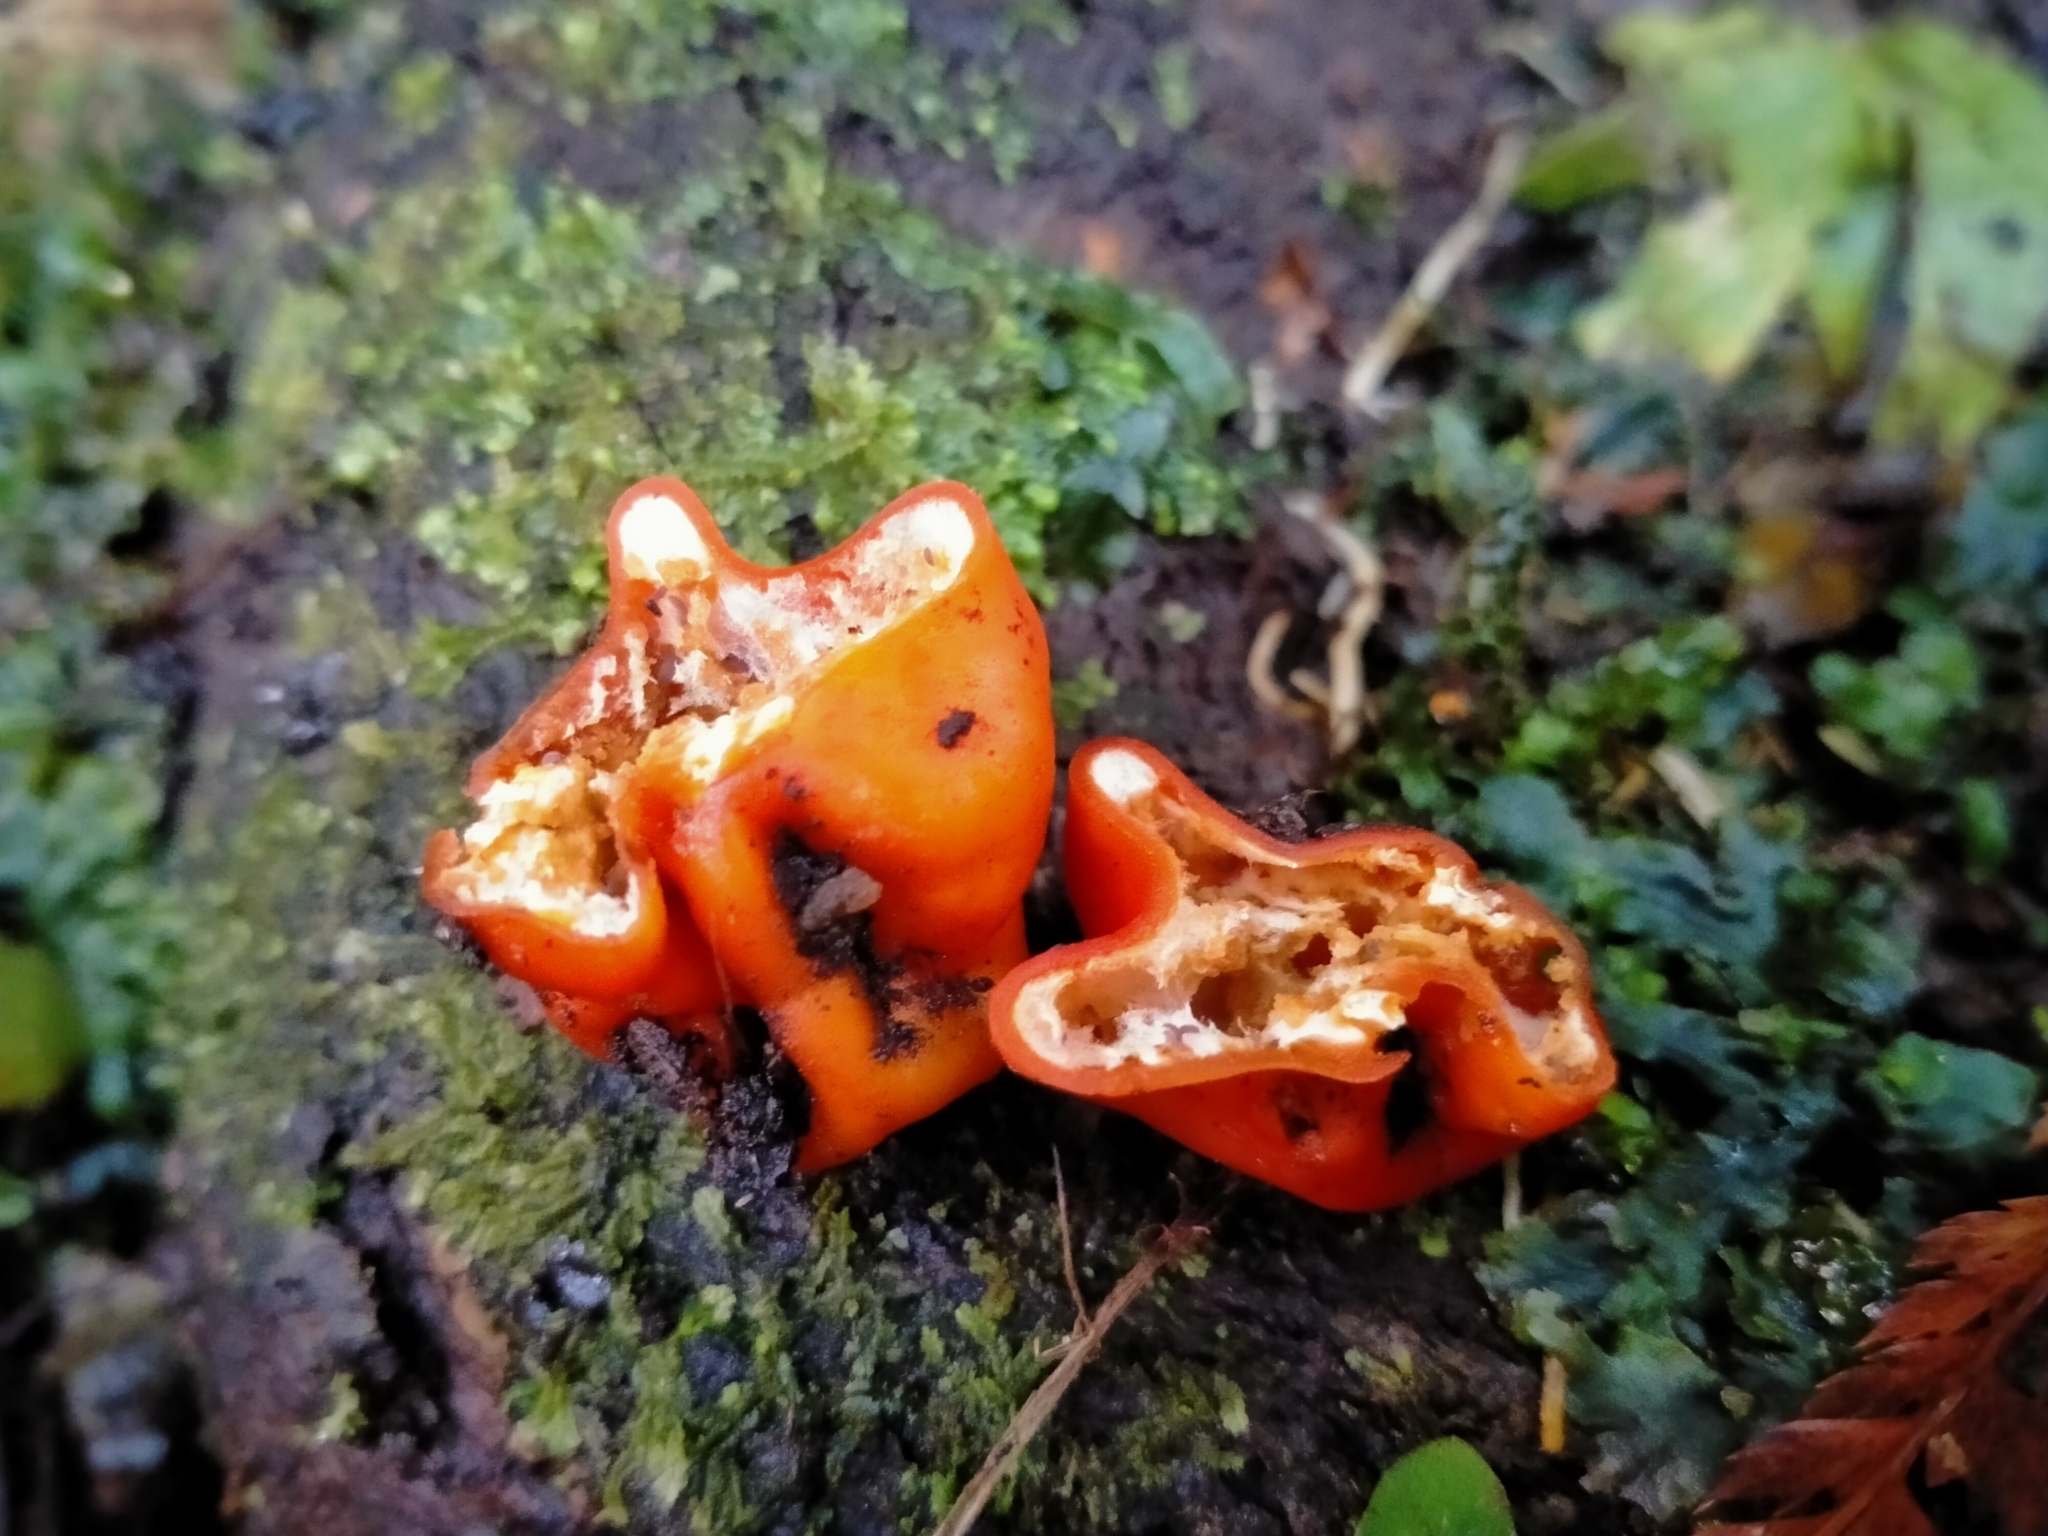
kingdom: Fungi
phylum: Ascomycota
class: Pezizomycetes
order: Pezizales
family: Pyronemataceae
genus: Paurocotylis
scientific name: Paurocotylis pila
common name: Scarlet berry truffle
